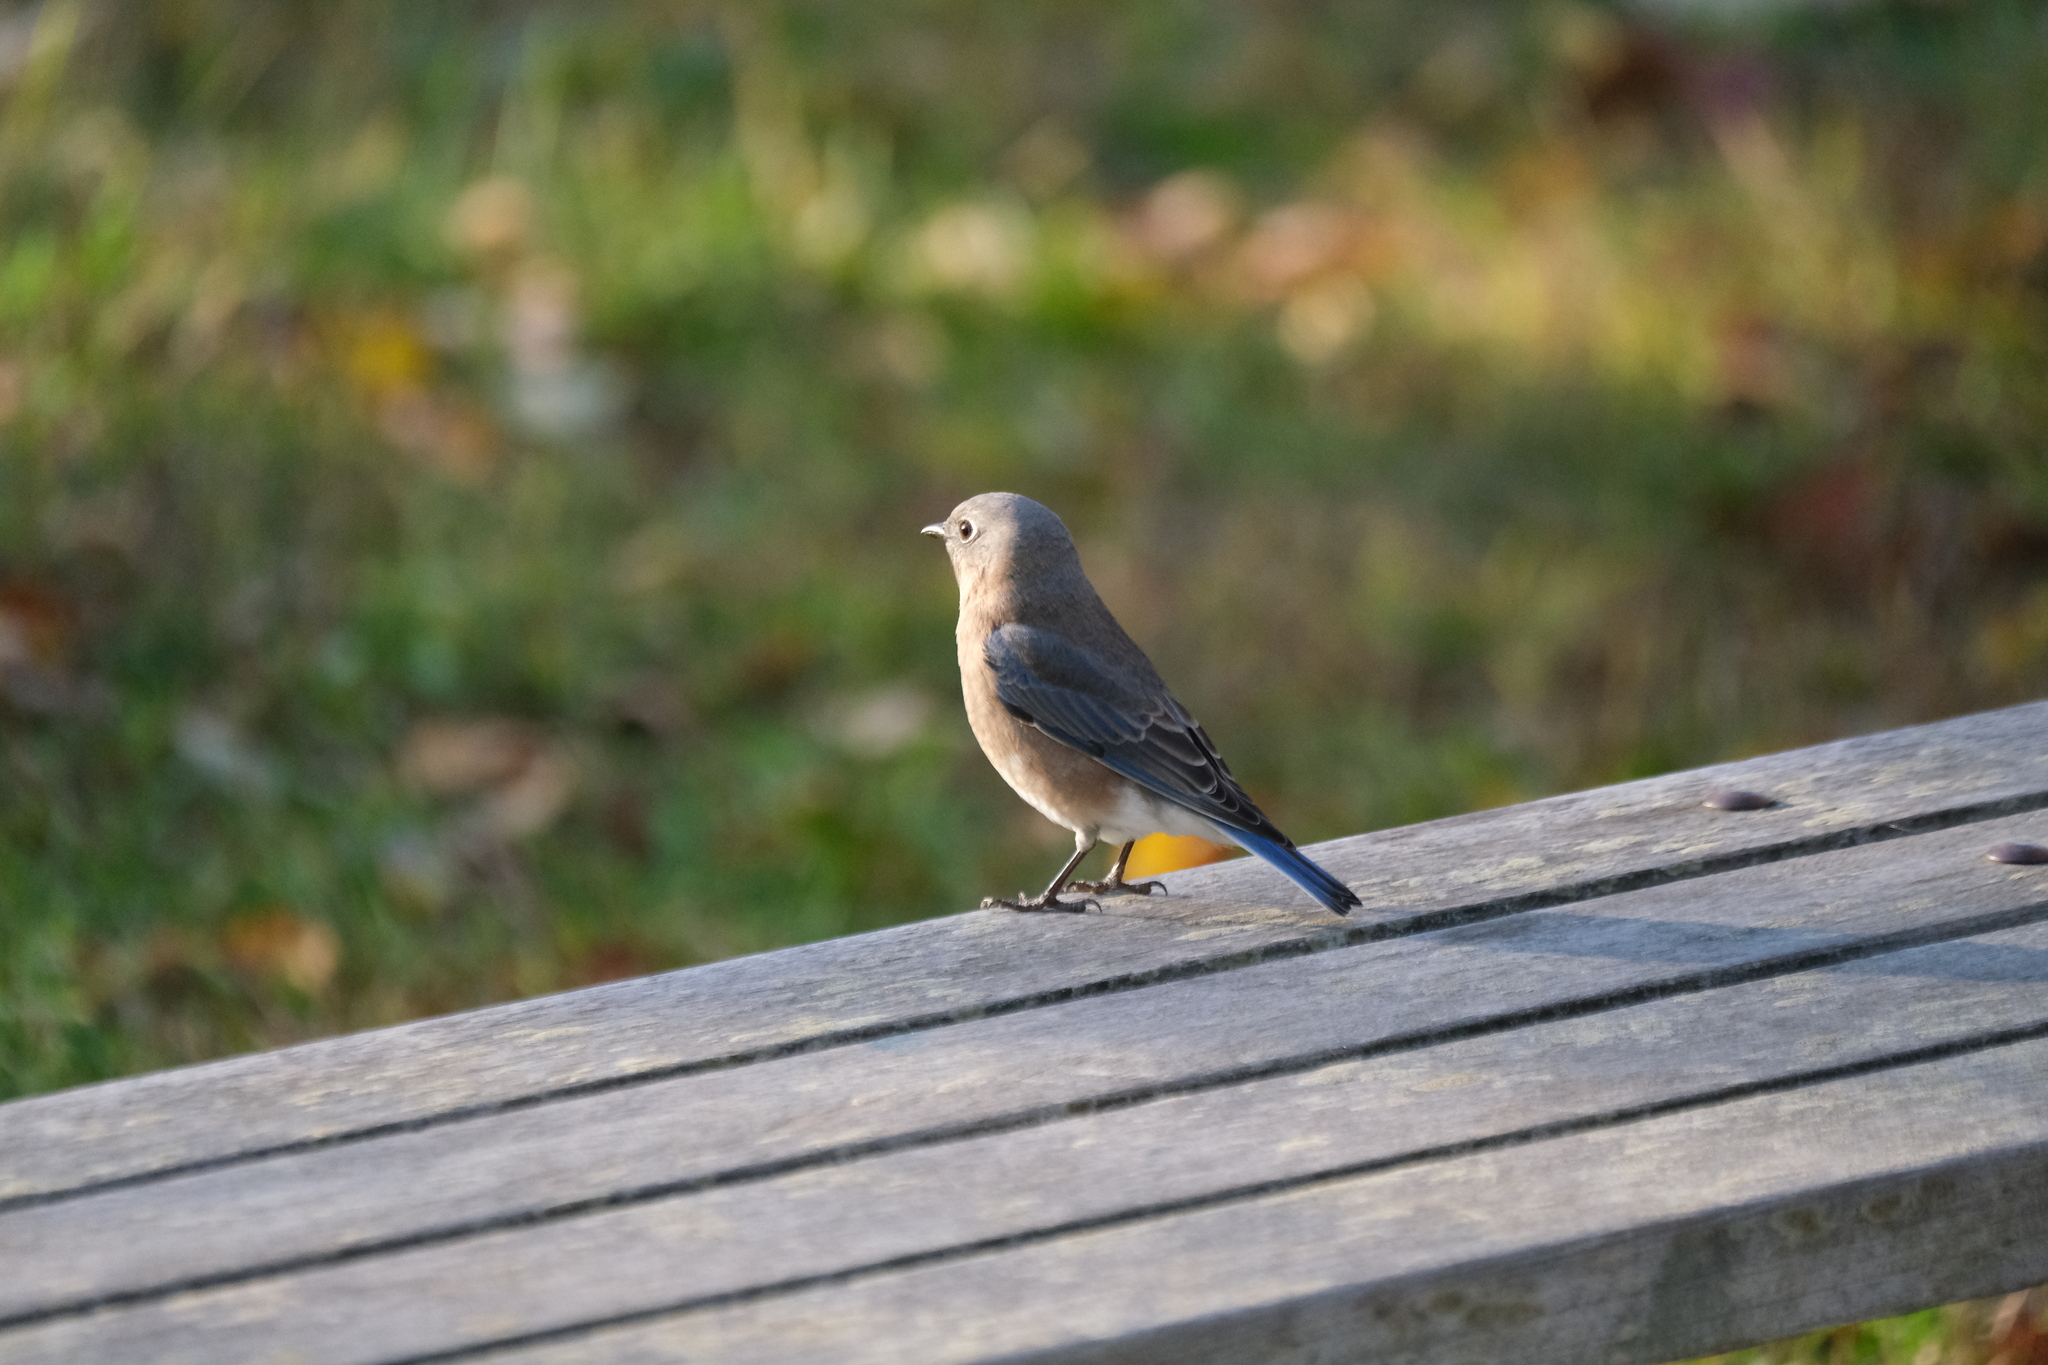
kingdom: Animalia
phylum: Chordata
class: Aves
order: Passeriformes
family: Turdidae
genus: Sialia
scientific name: Sialia sialis
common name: Eastern bluebird
